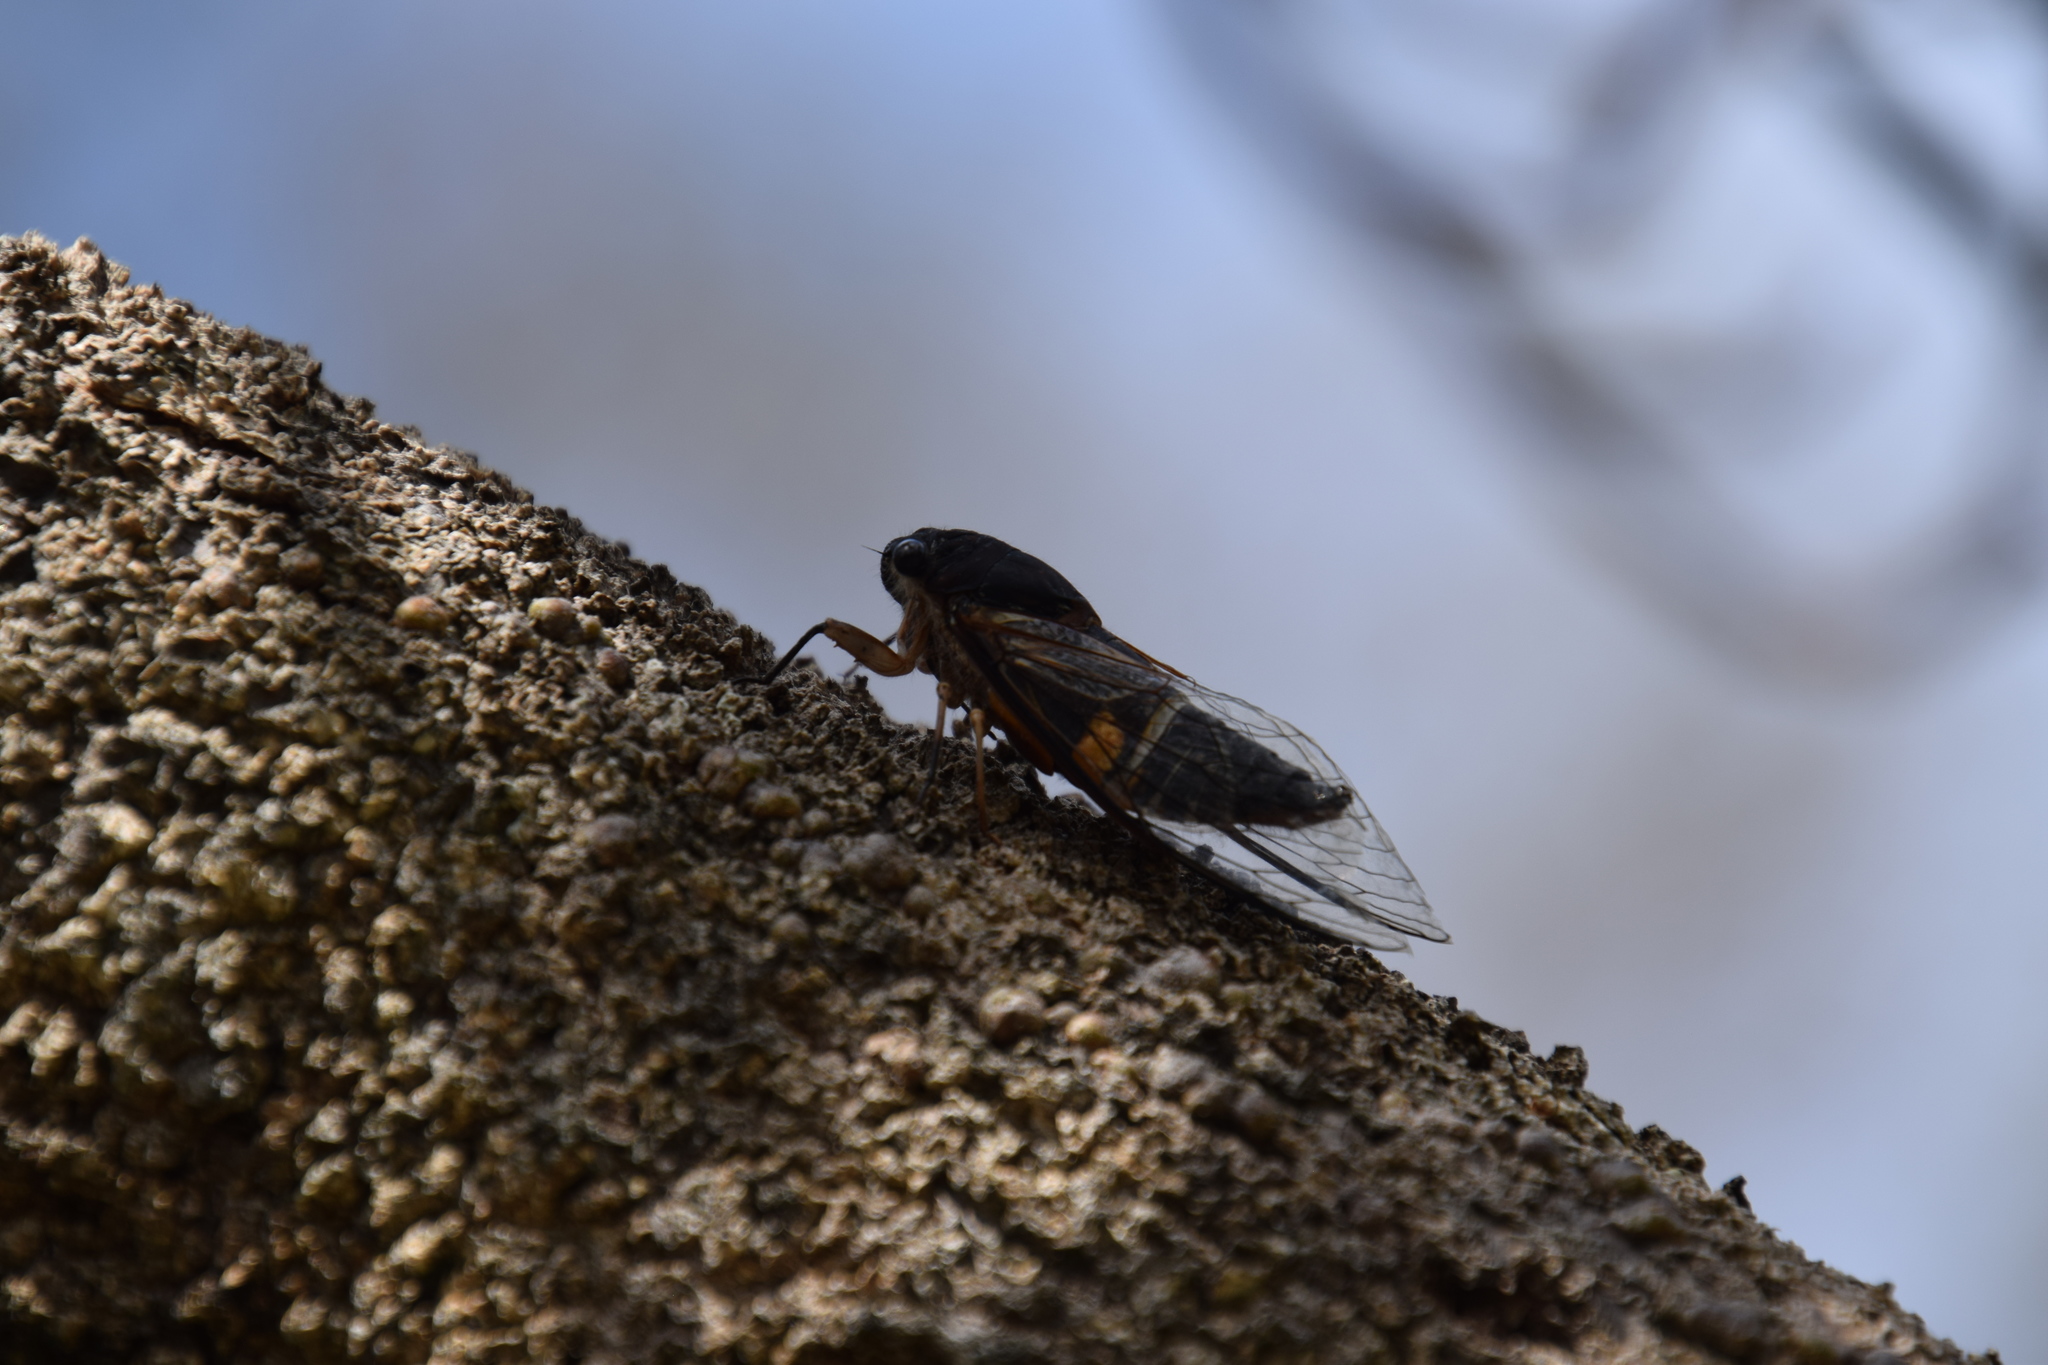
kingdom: Animalia
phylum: Arthropoda
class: Insecta
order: Hemiptera
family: Cicadidae
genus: Psaltoda
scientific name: Psaltoda harrisii
